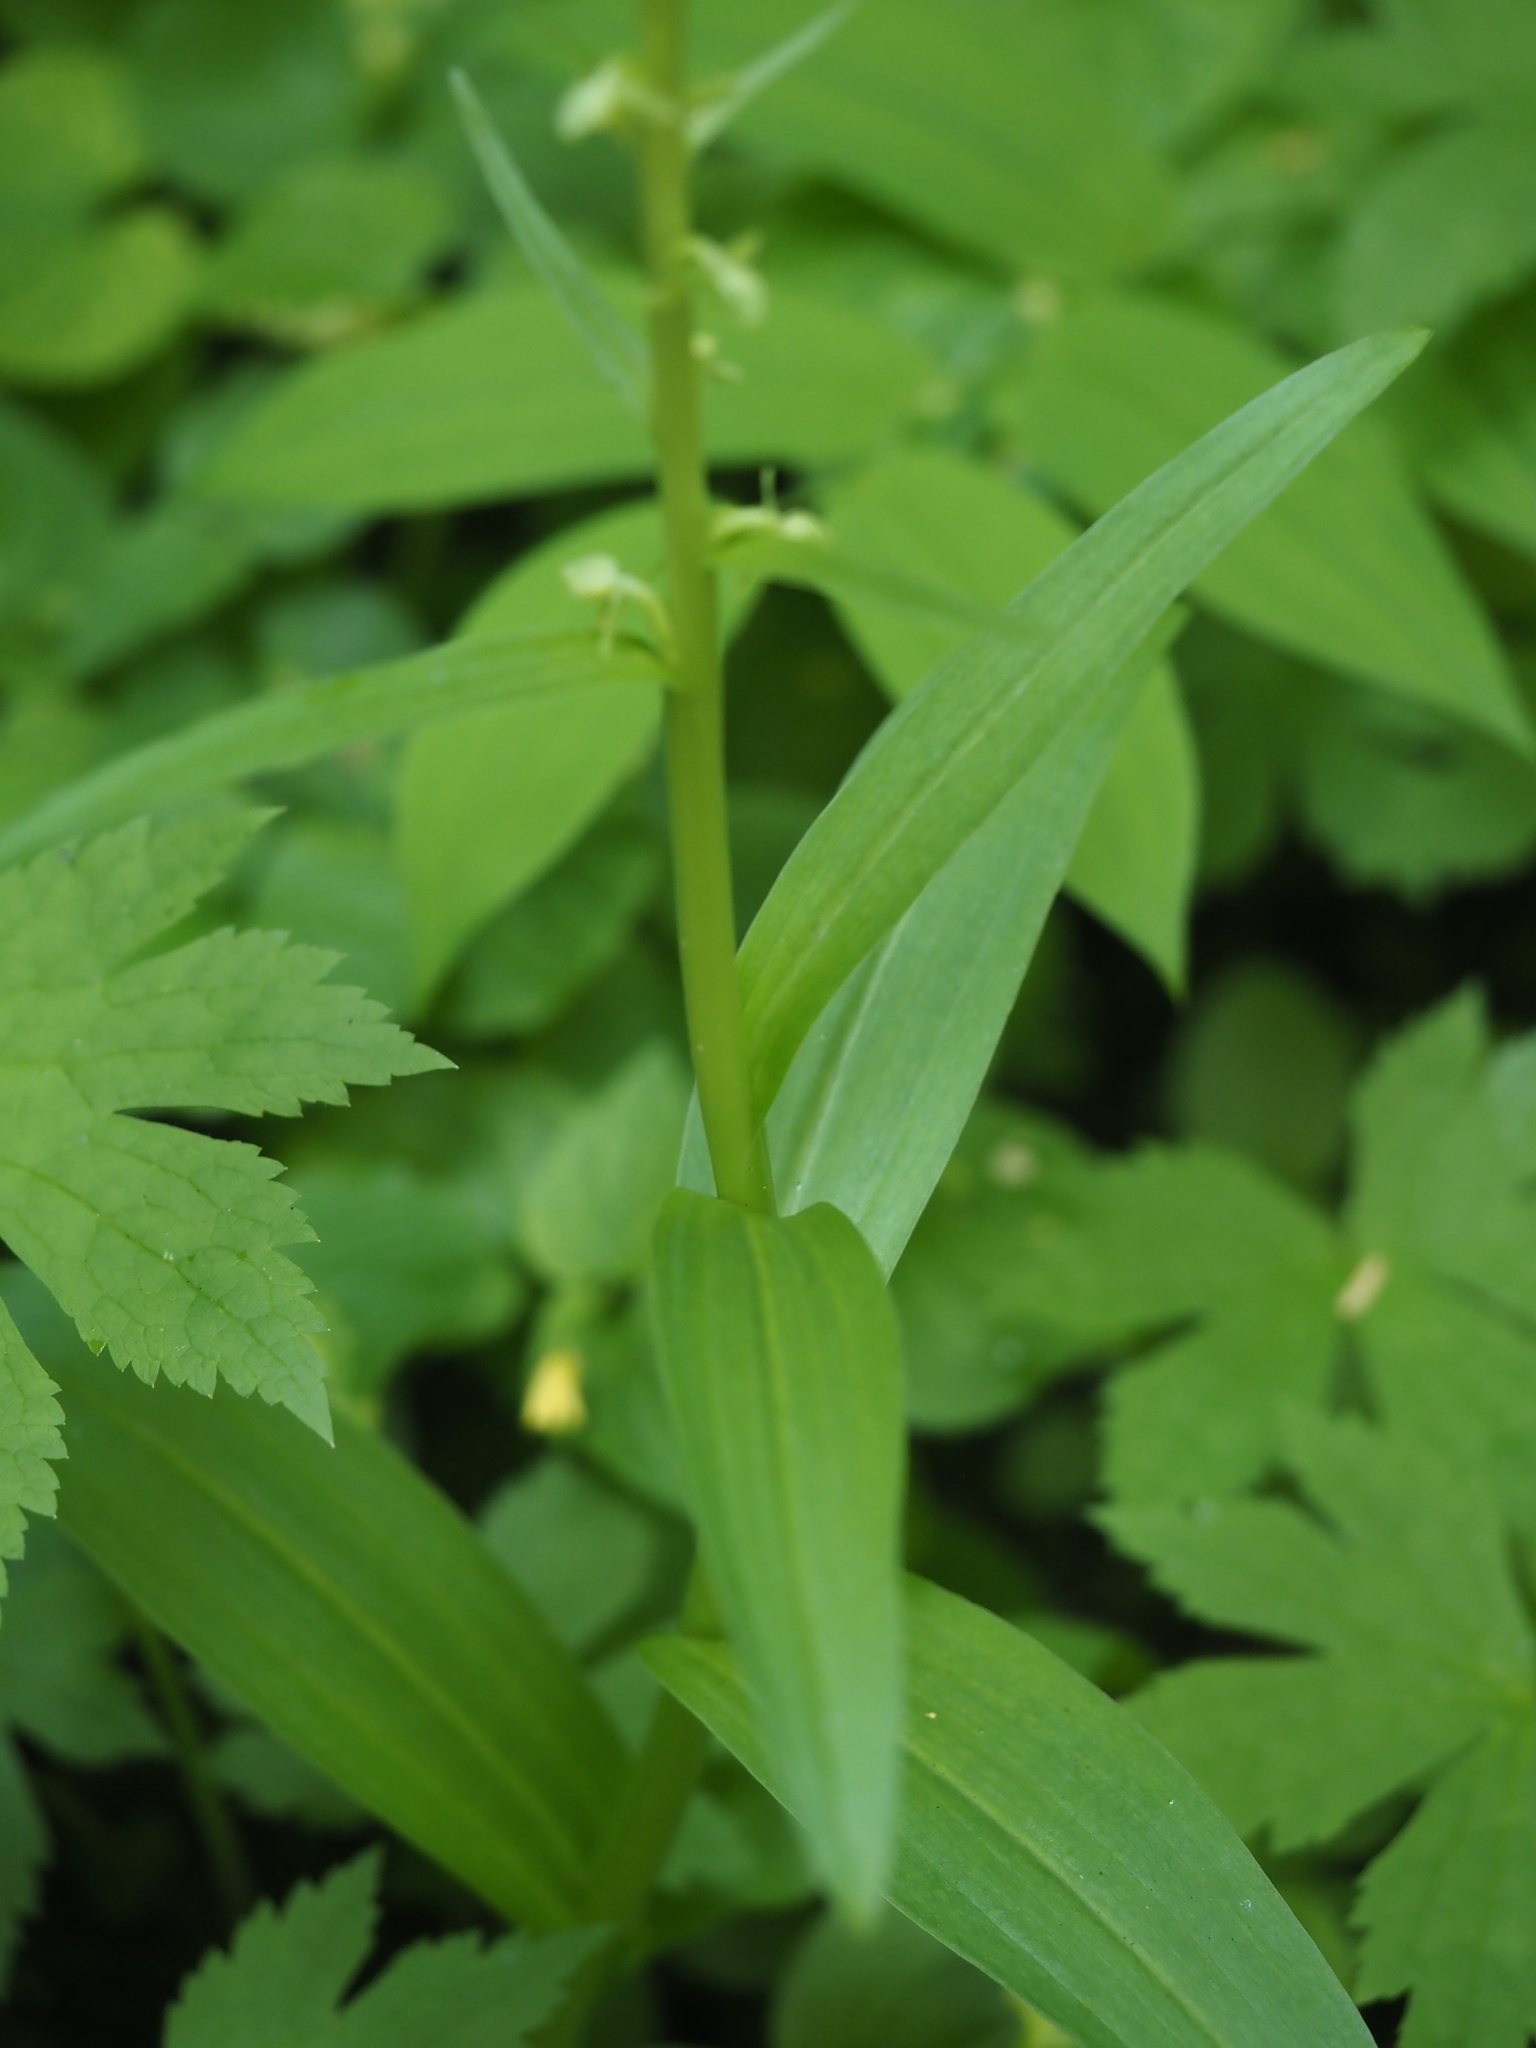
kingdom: Plantae
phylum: Tracheophyta
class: Liliopsida
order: Asparagales
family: Orchidaceae
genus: Platanthera
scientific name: Platanthera stricta
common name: Slender bog orchid
